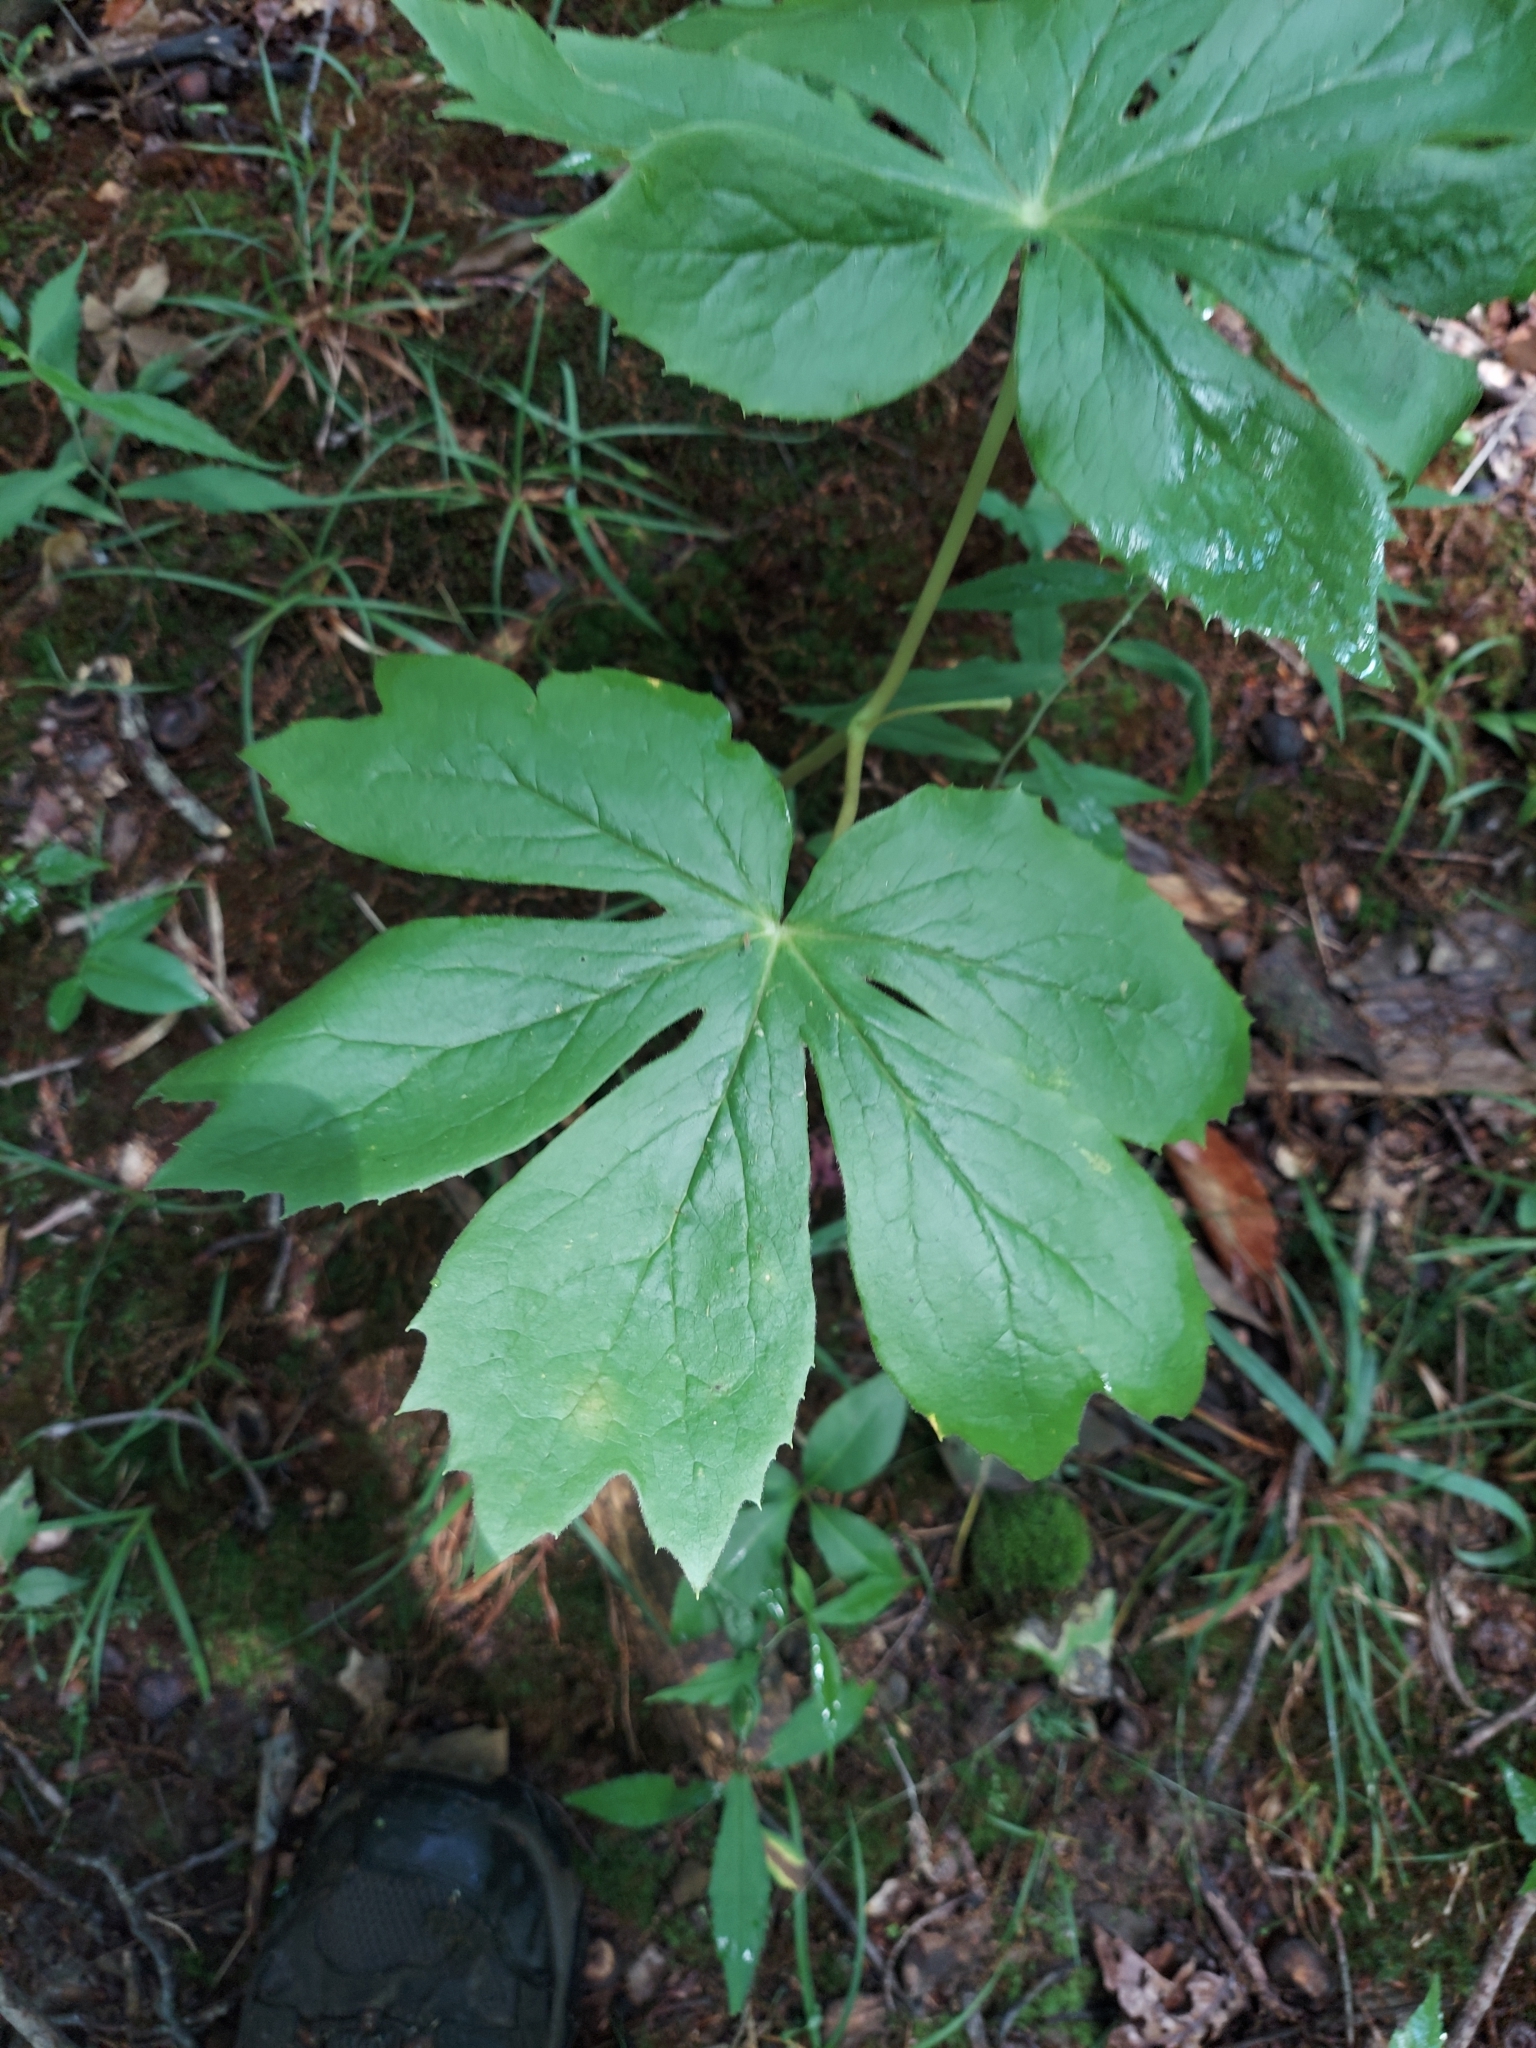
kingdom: Plantae
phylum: Tracheophyta
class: Magnoliopsida
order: Ranunculales
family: Berberidaceae
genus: Podophyllum
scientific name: Podophyllum peltatum
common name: Wild mandrake
